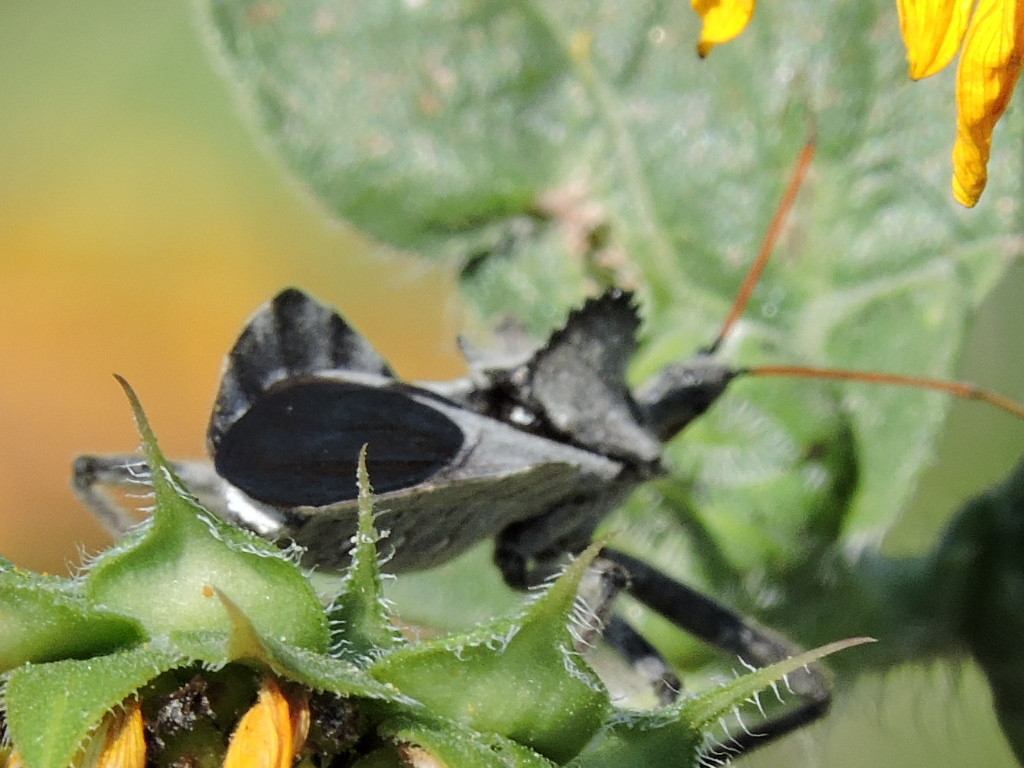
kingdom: Animalia
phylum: Arthropoda
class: Insecta
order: Hemiptera
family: Reduviidae
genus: Arilus
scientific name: Arilus cristatus
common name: North american wheel bug
